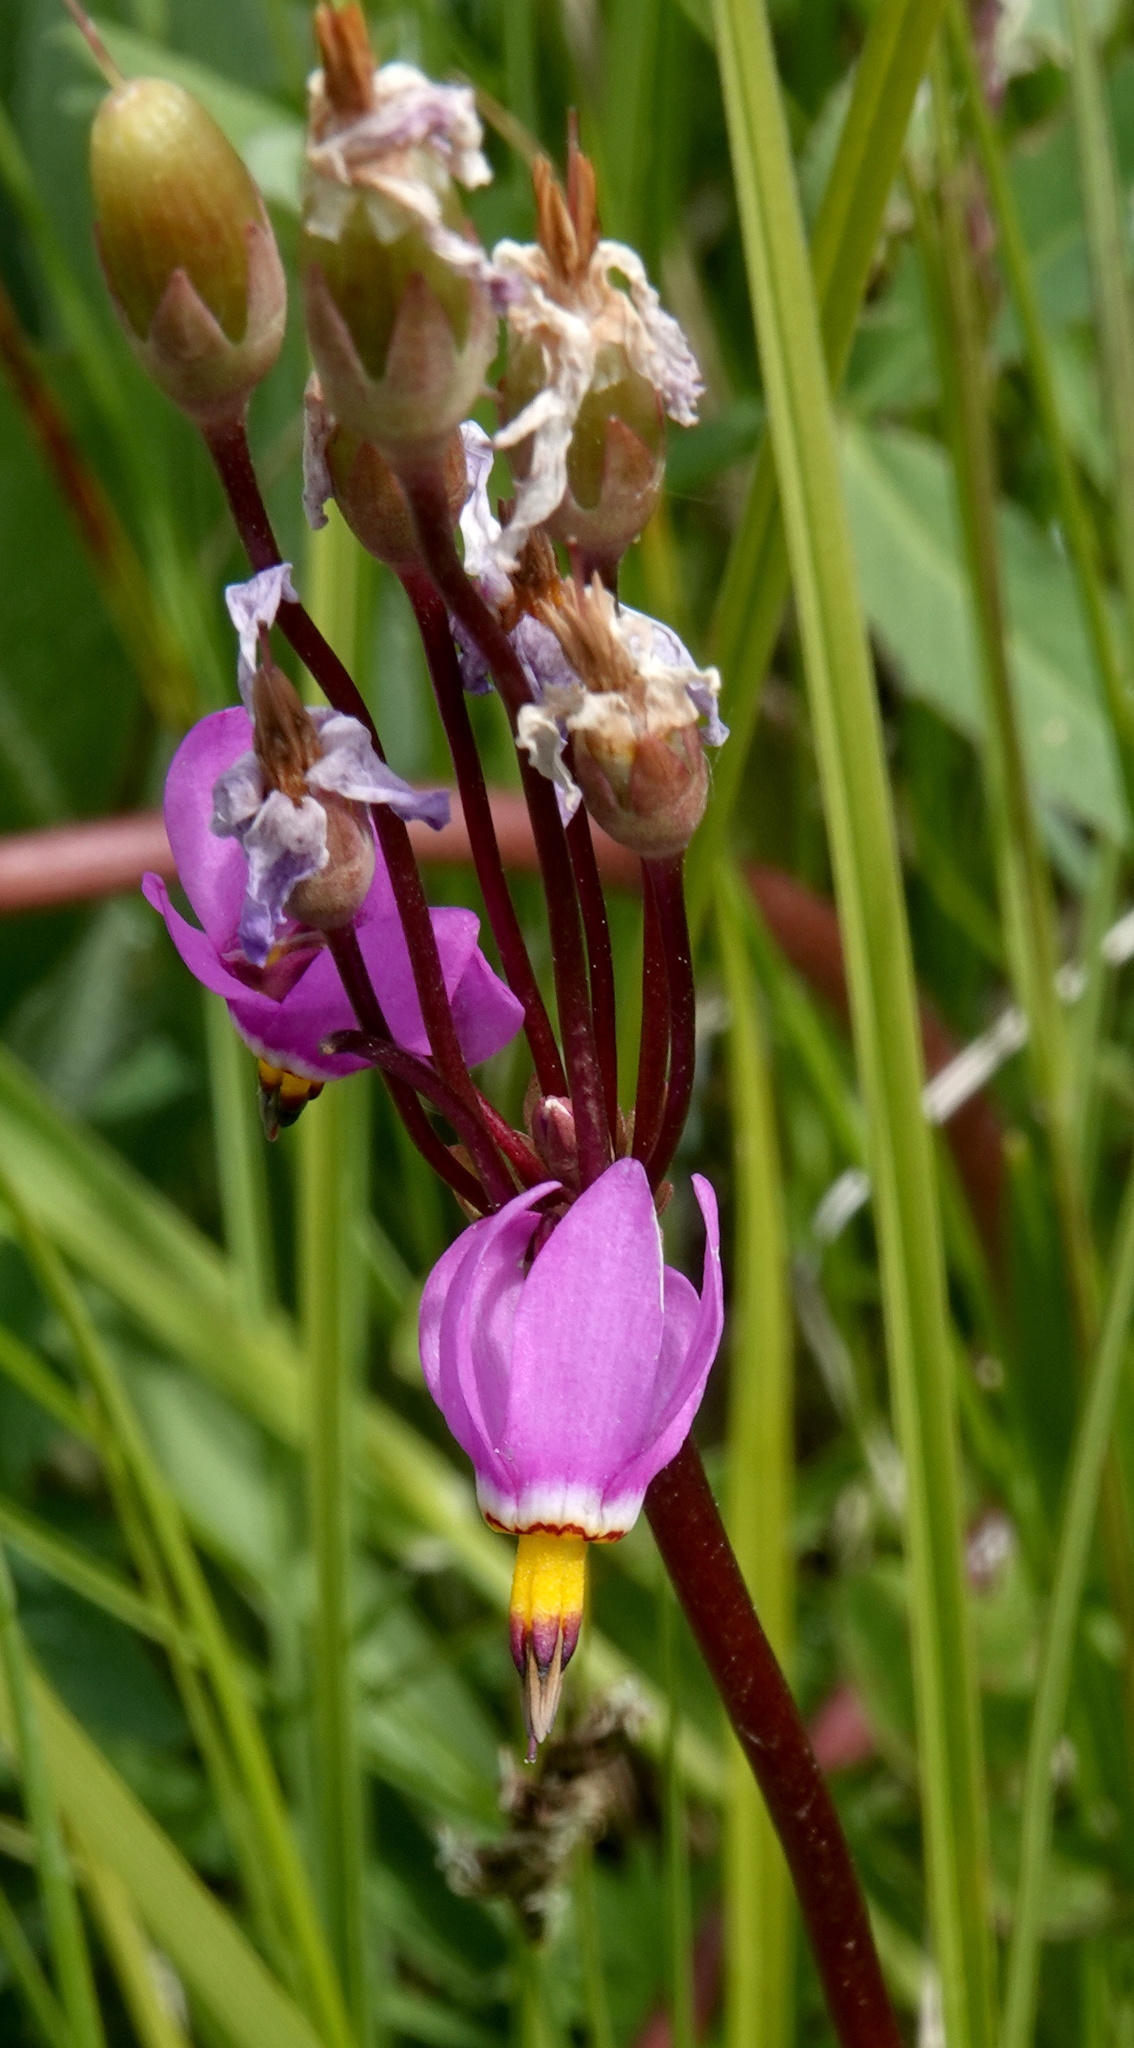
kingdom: Plantae
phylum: Tracheophyta
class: Magnoliopsida
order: Ericales
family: Primulaceae
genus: Dodecatheon
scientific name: Dodecatheon pulchellum
